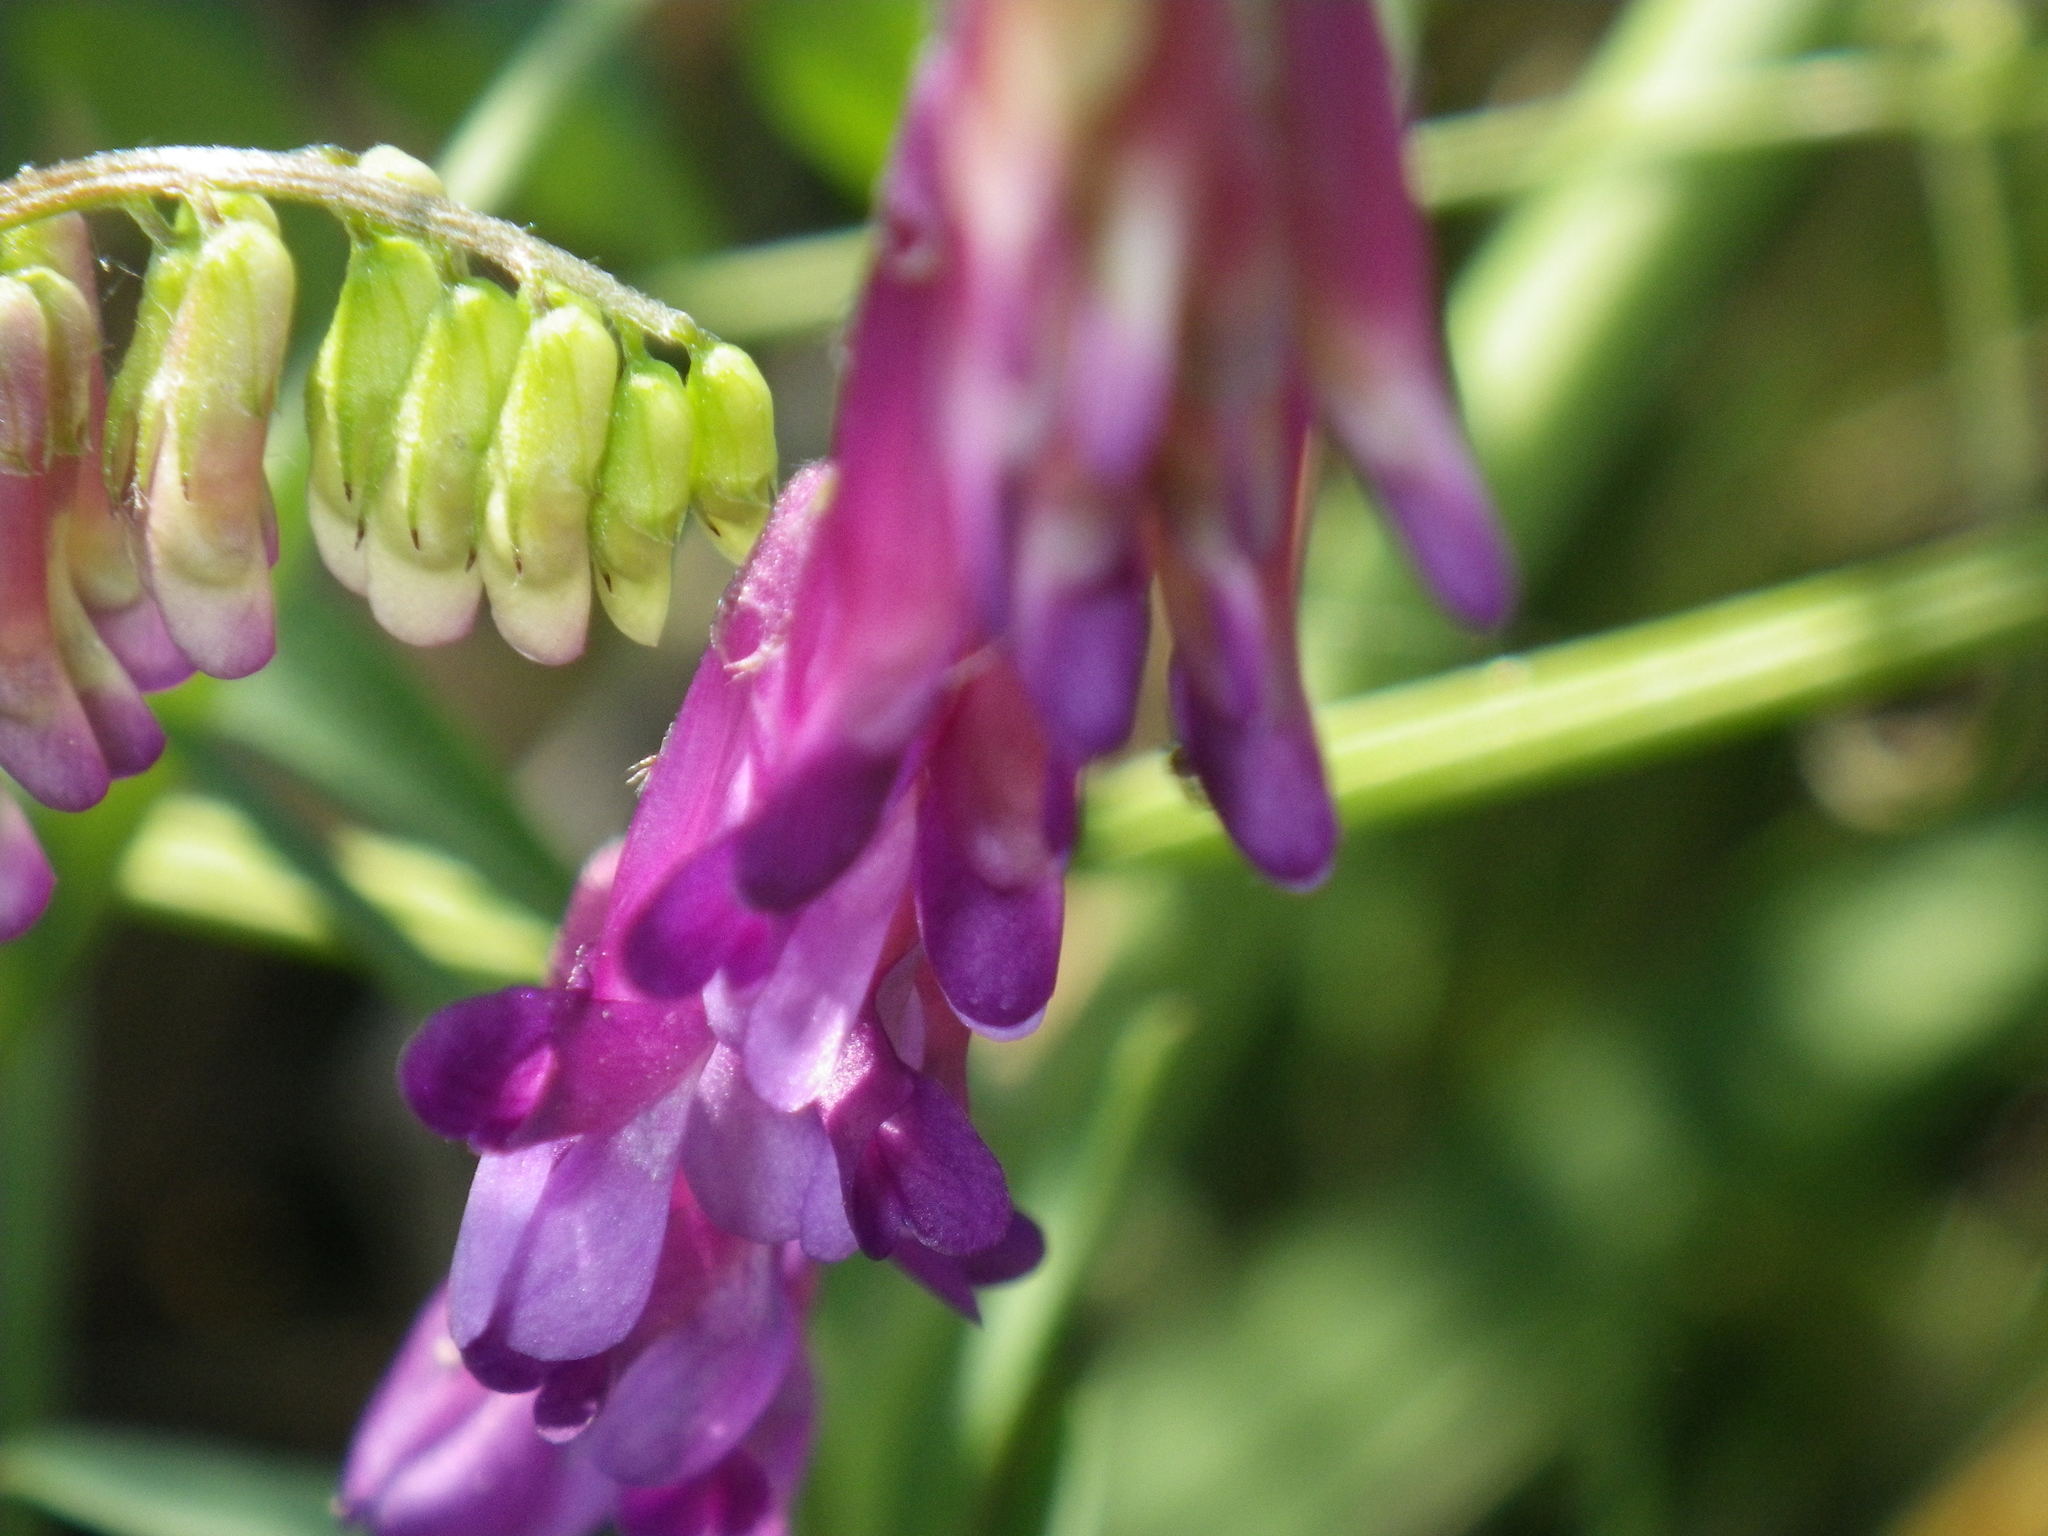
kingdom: Plantae
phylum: Tracheophyta
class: Magnoliopsida
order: Fabales
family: Fabaceae
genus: Vicia
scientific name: Vicia villosa
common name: Fodder vetch
